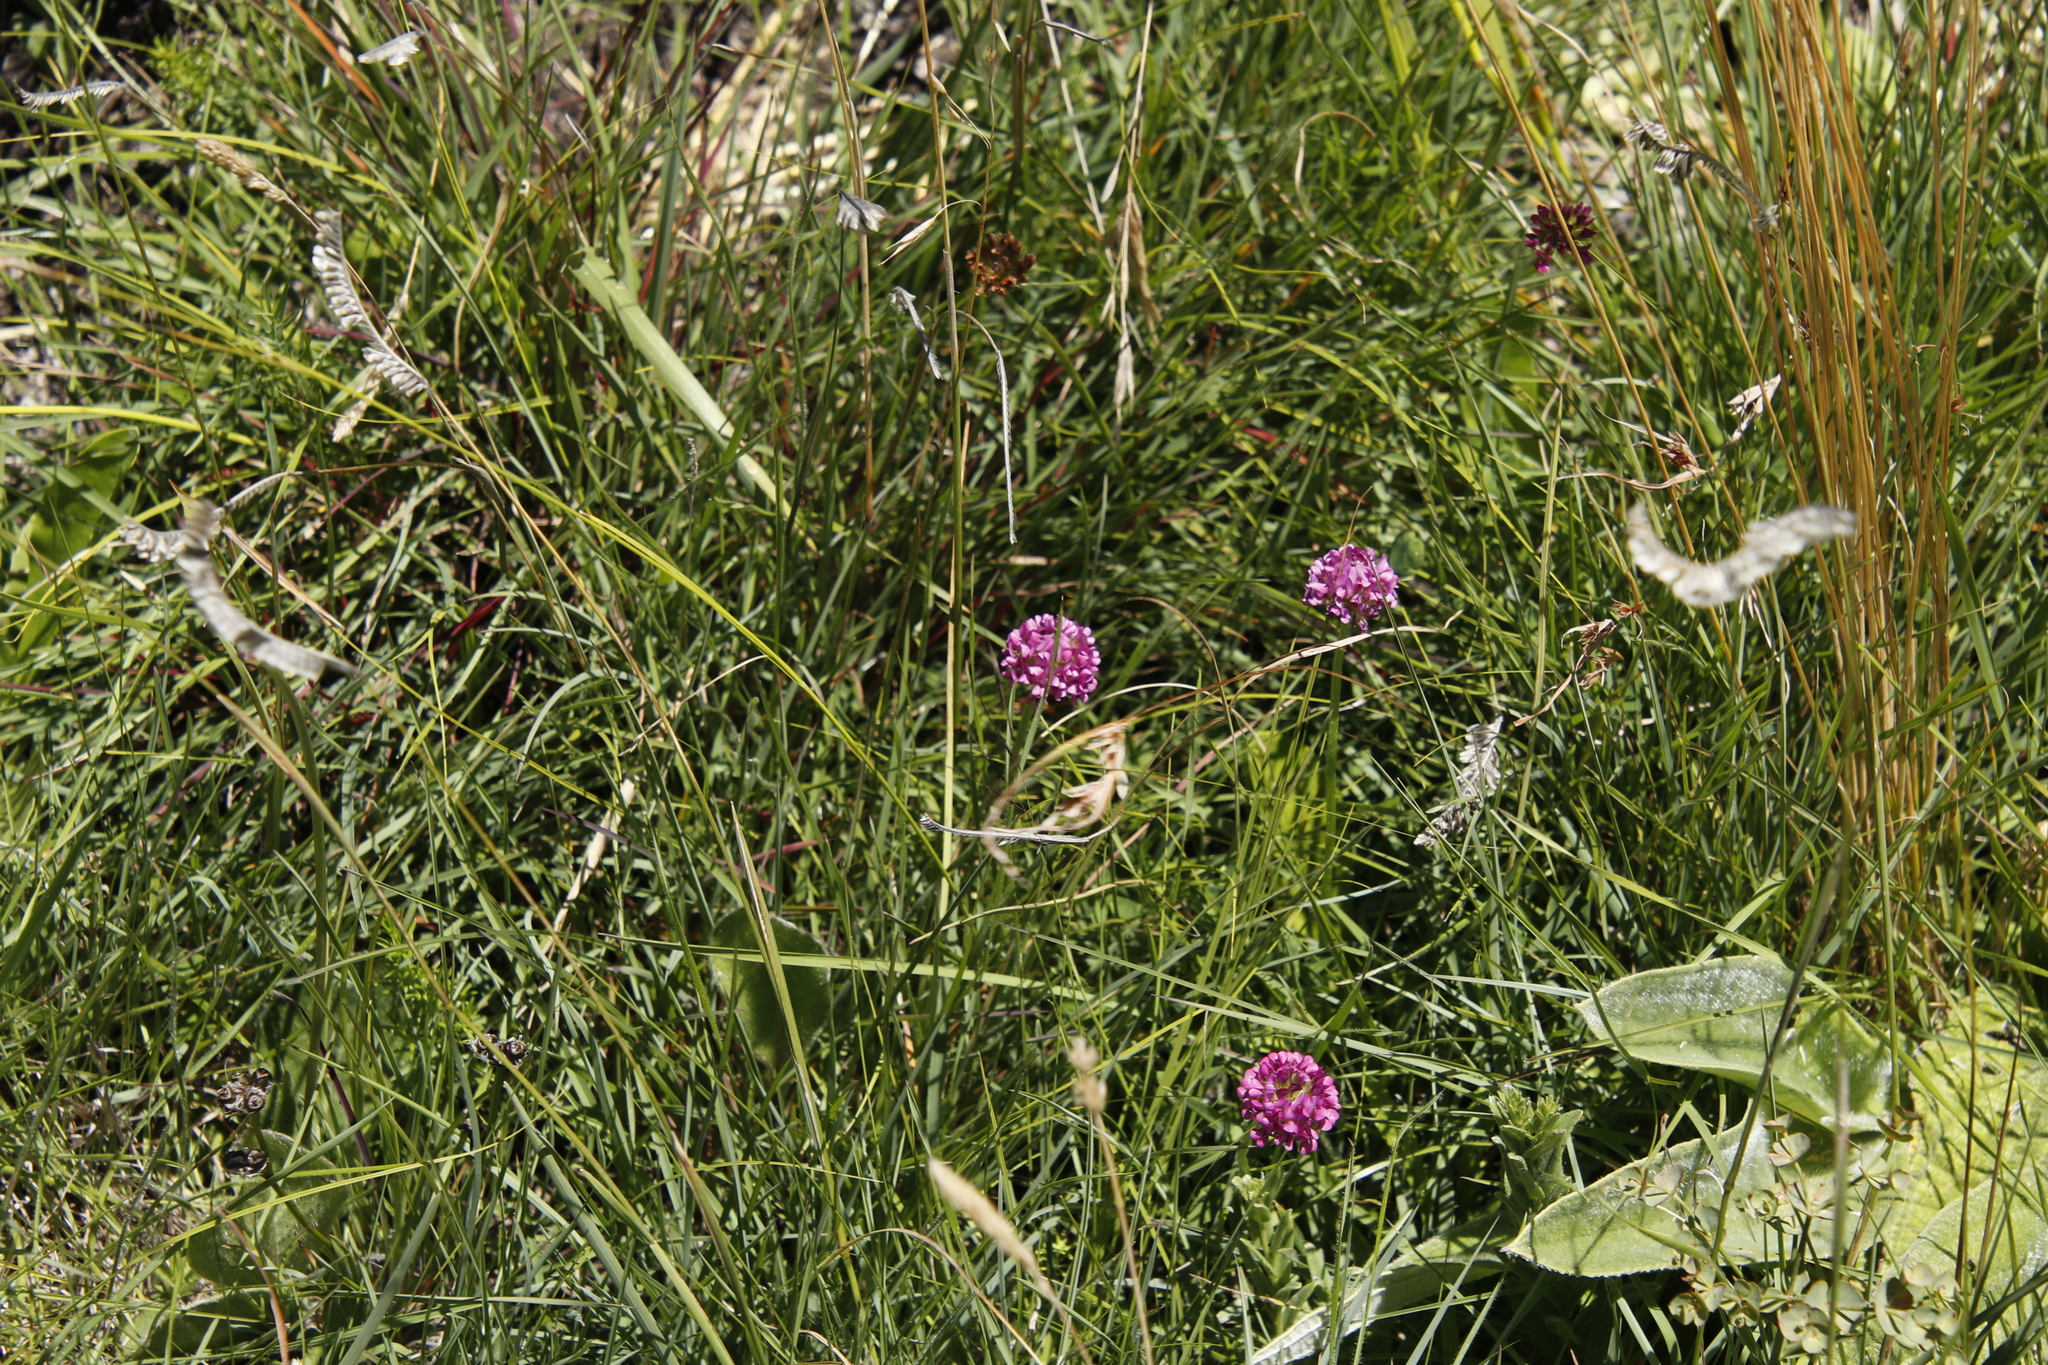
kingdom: Plantae
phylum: Tracheophyta
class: Magnoliopsida
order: Fabales
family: Fabaceae
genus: Trifolium
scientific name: Trifolium burchellianum
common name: Burchell's clover
